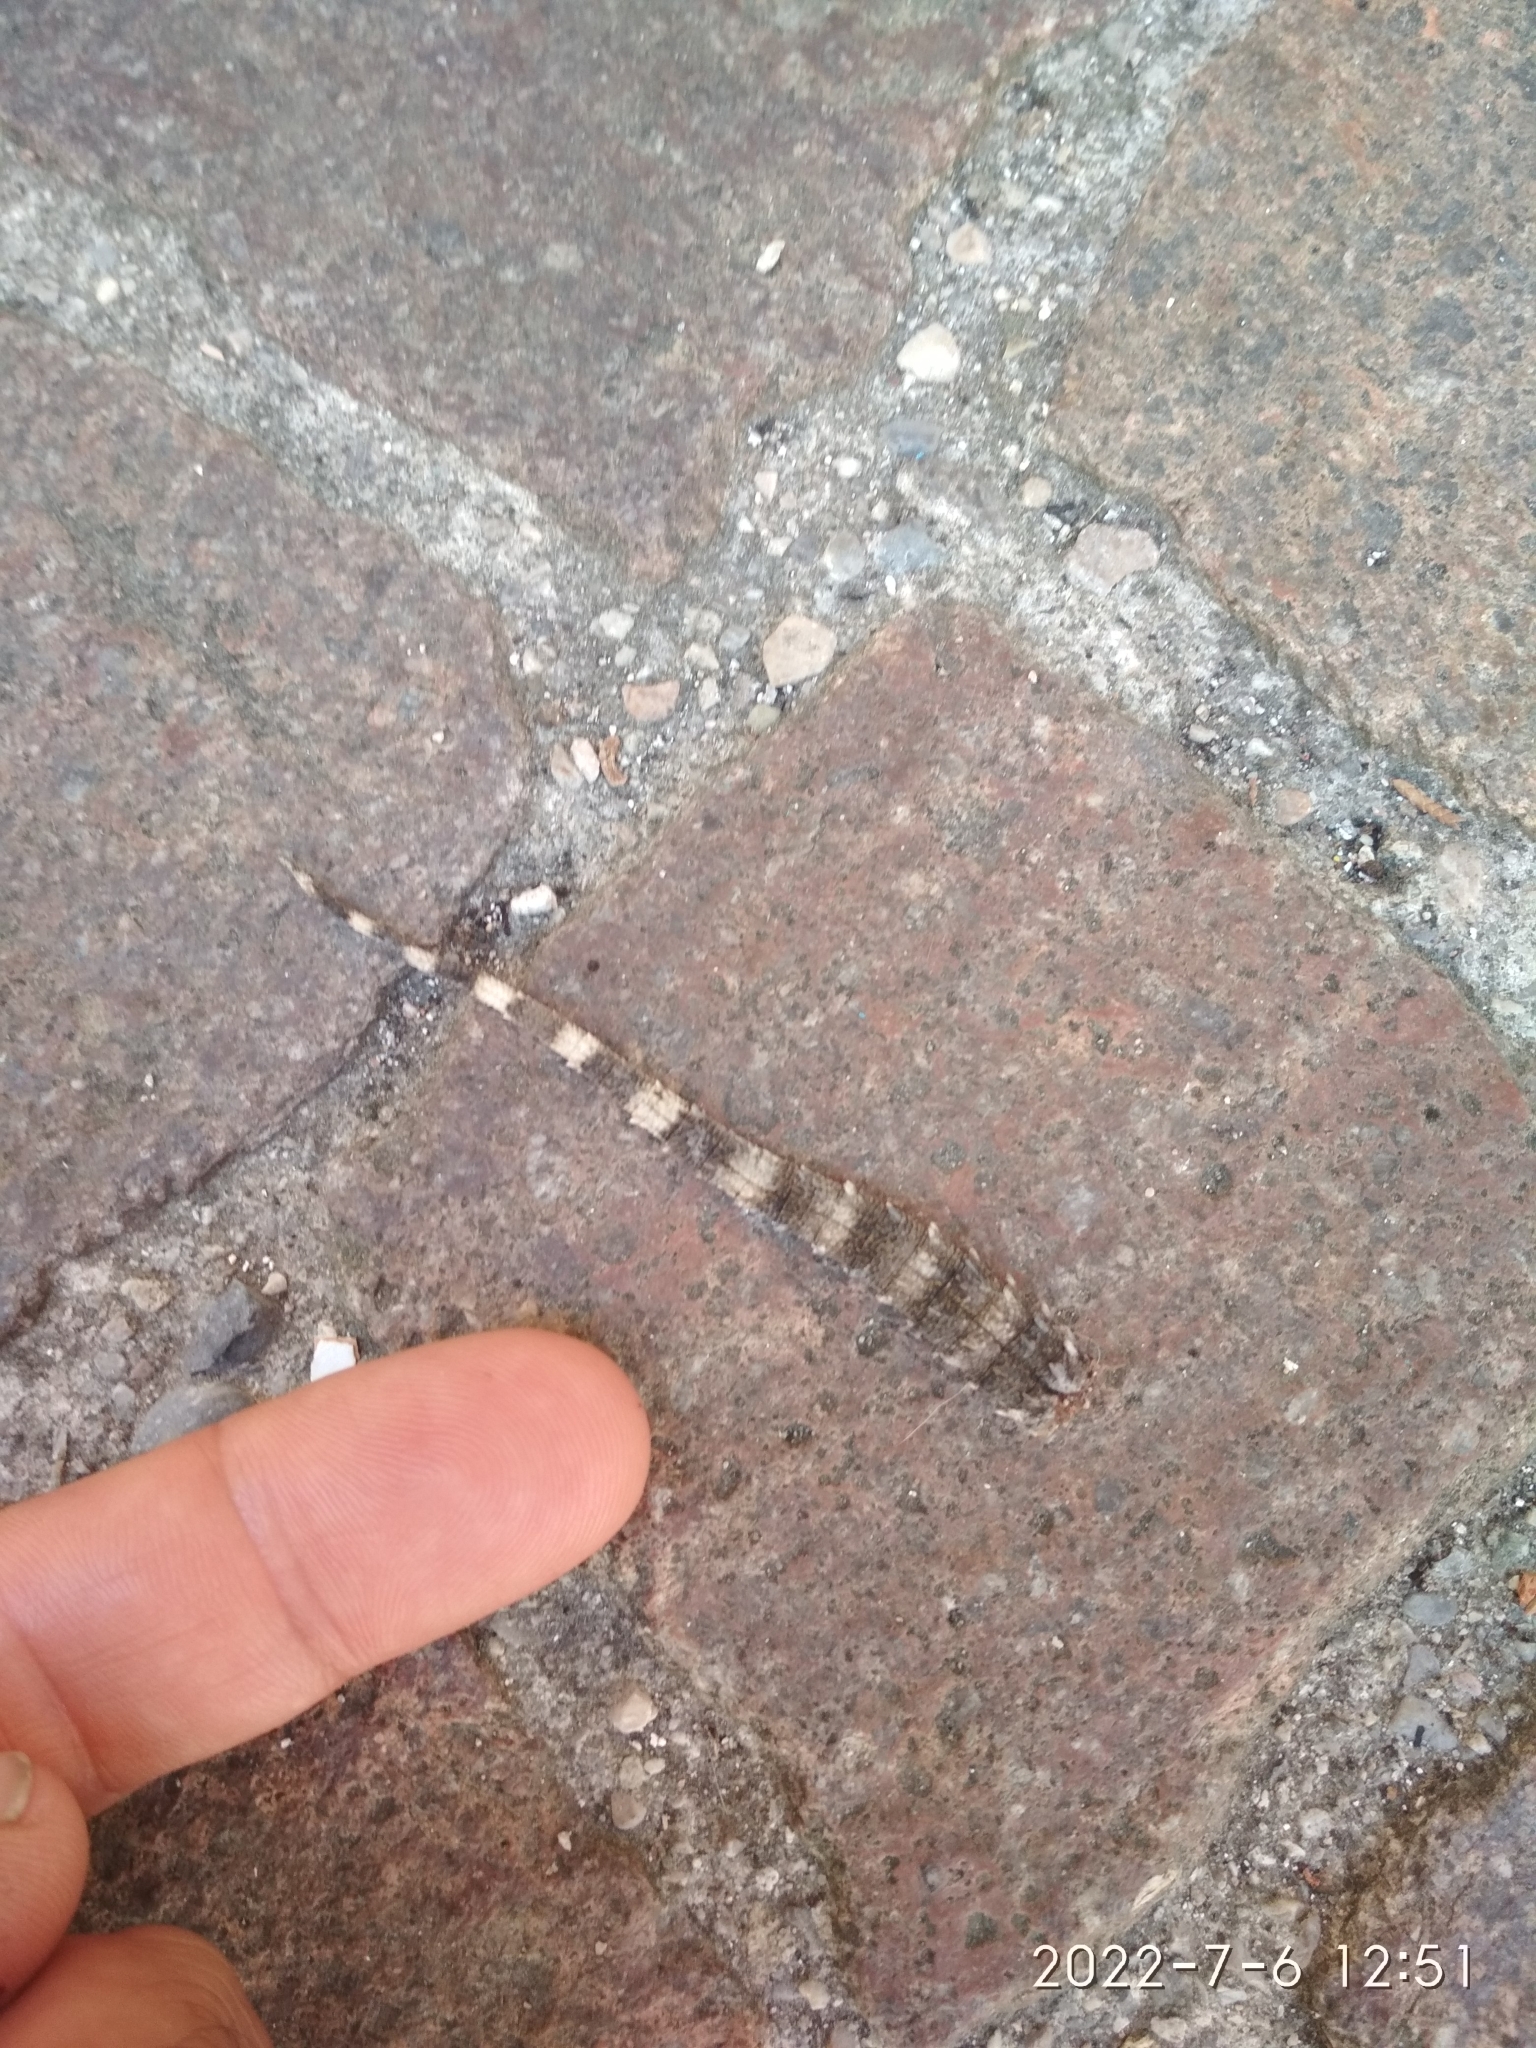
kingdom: Animalia
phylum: Chordata
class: Squamata
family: Phyllodactylidae
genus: Tarentola
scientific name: Tarentola mauritanica
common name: Moorish gecko
